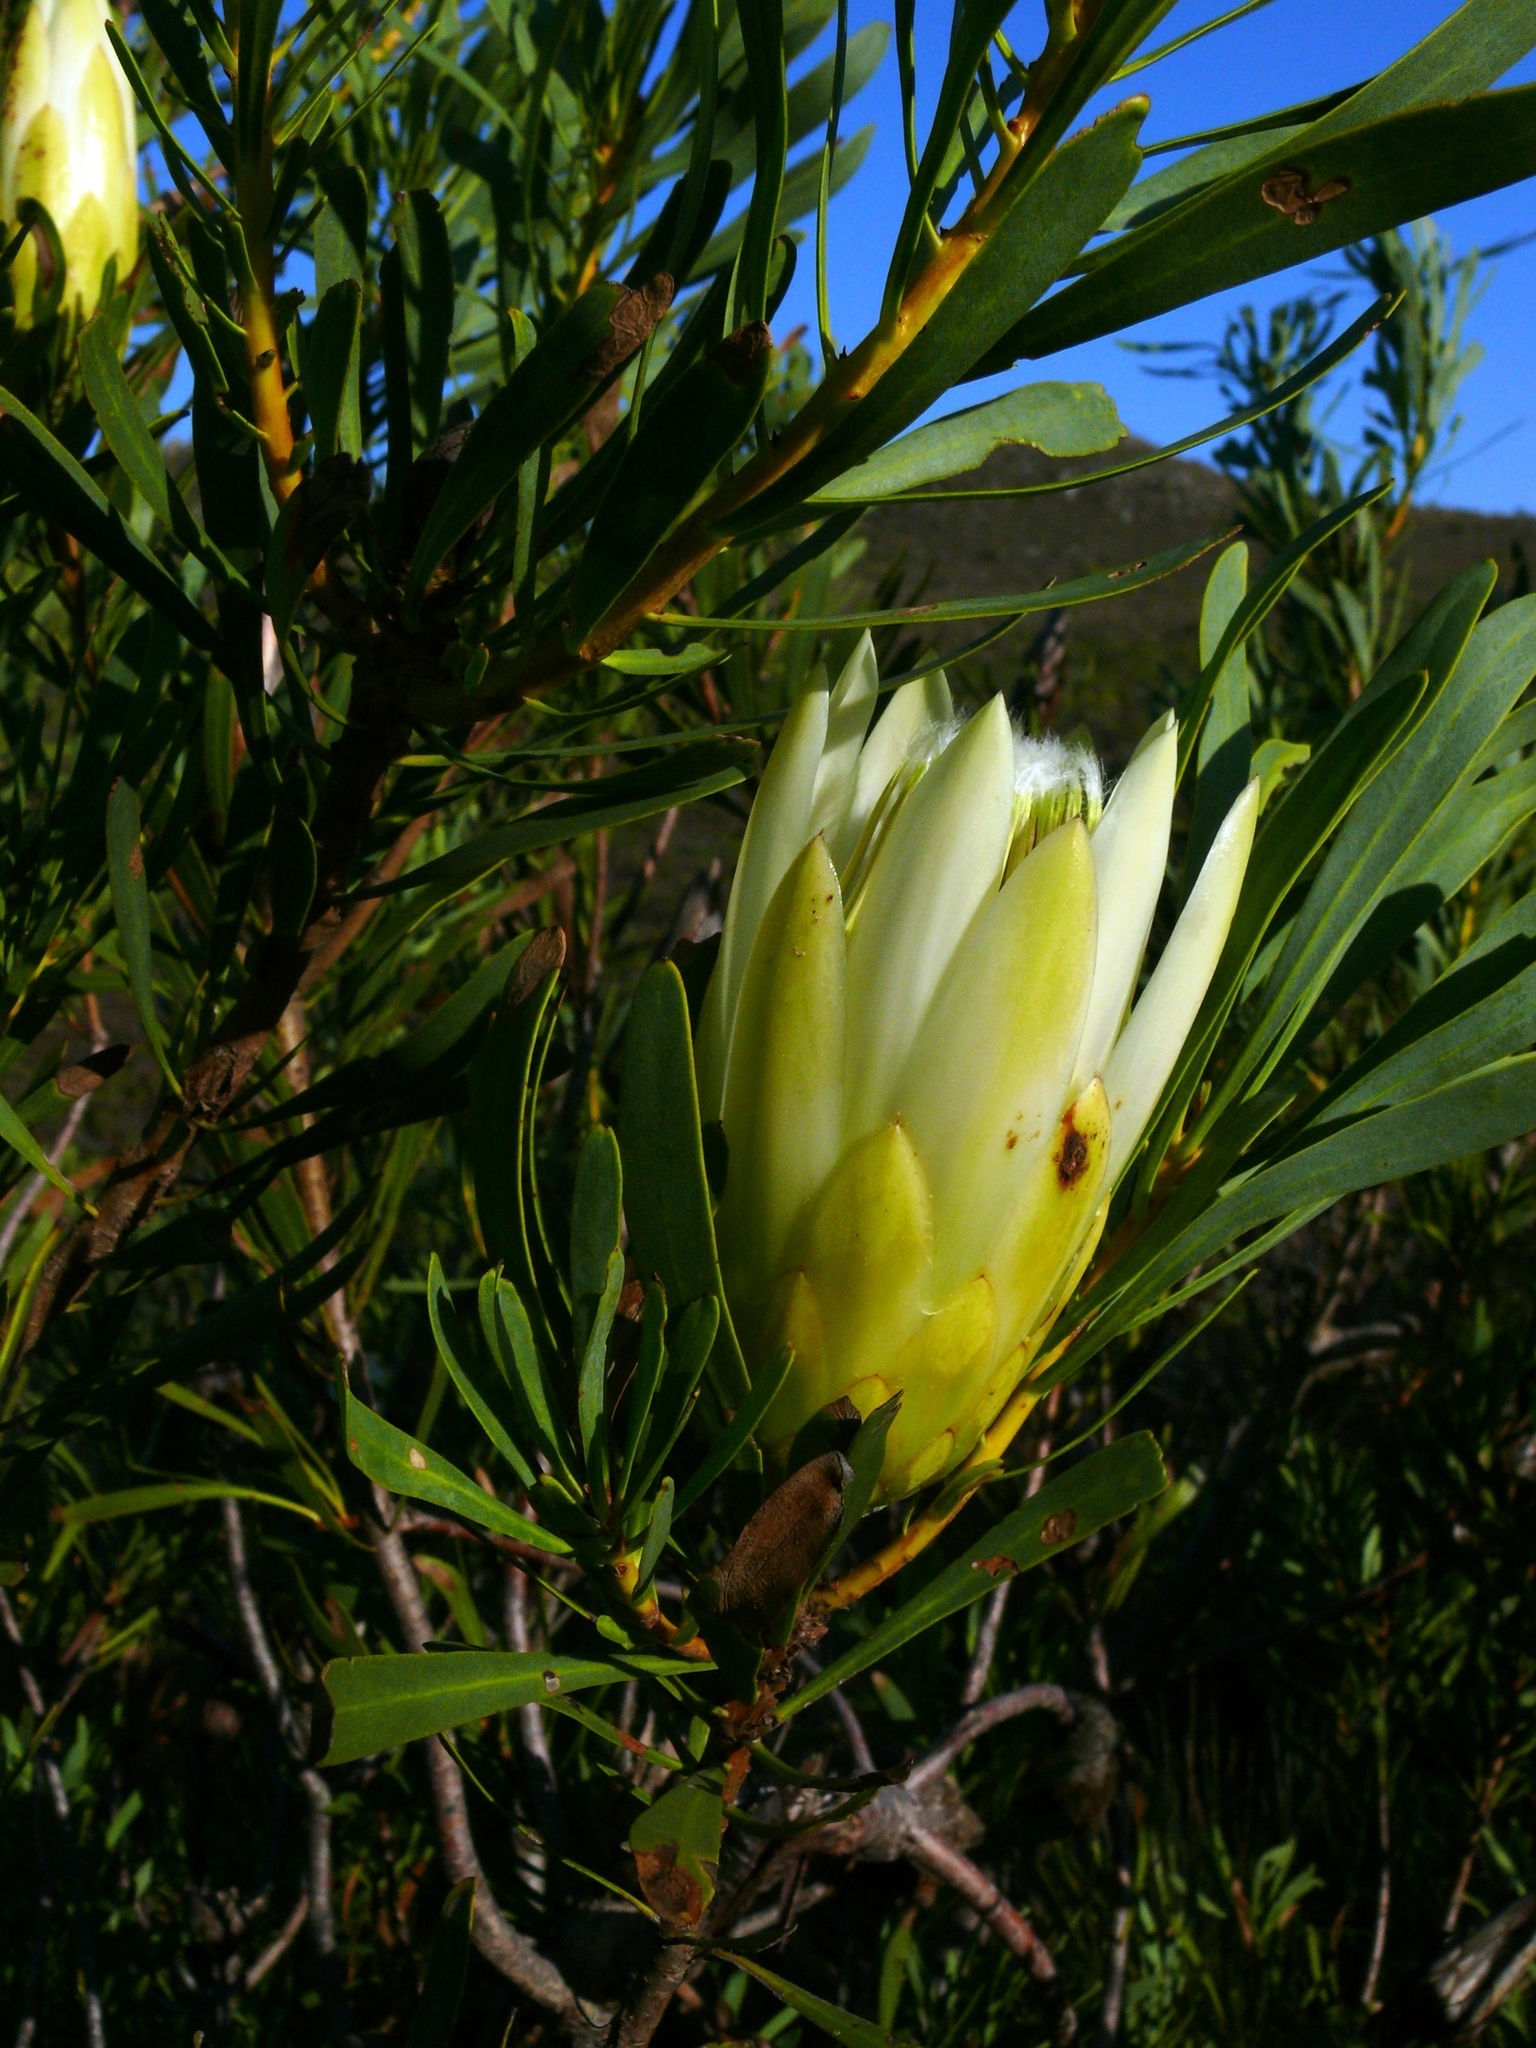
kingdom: Plantae
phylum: Tracheophyta
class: Magnoliopsida
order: Proteales
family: Proteaceae
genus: Protea
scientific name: Protea repens
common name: Sugarbush
